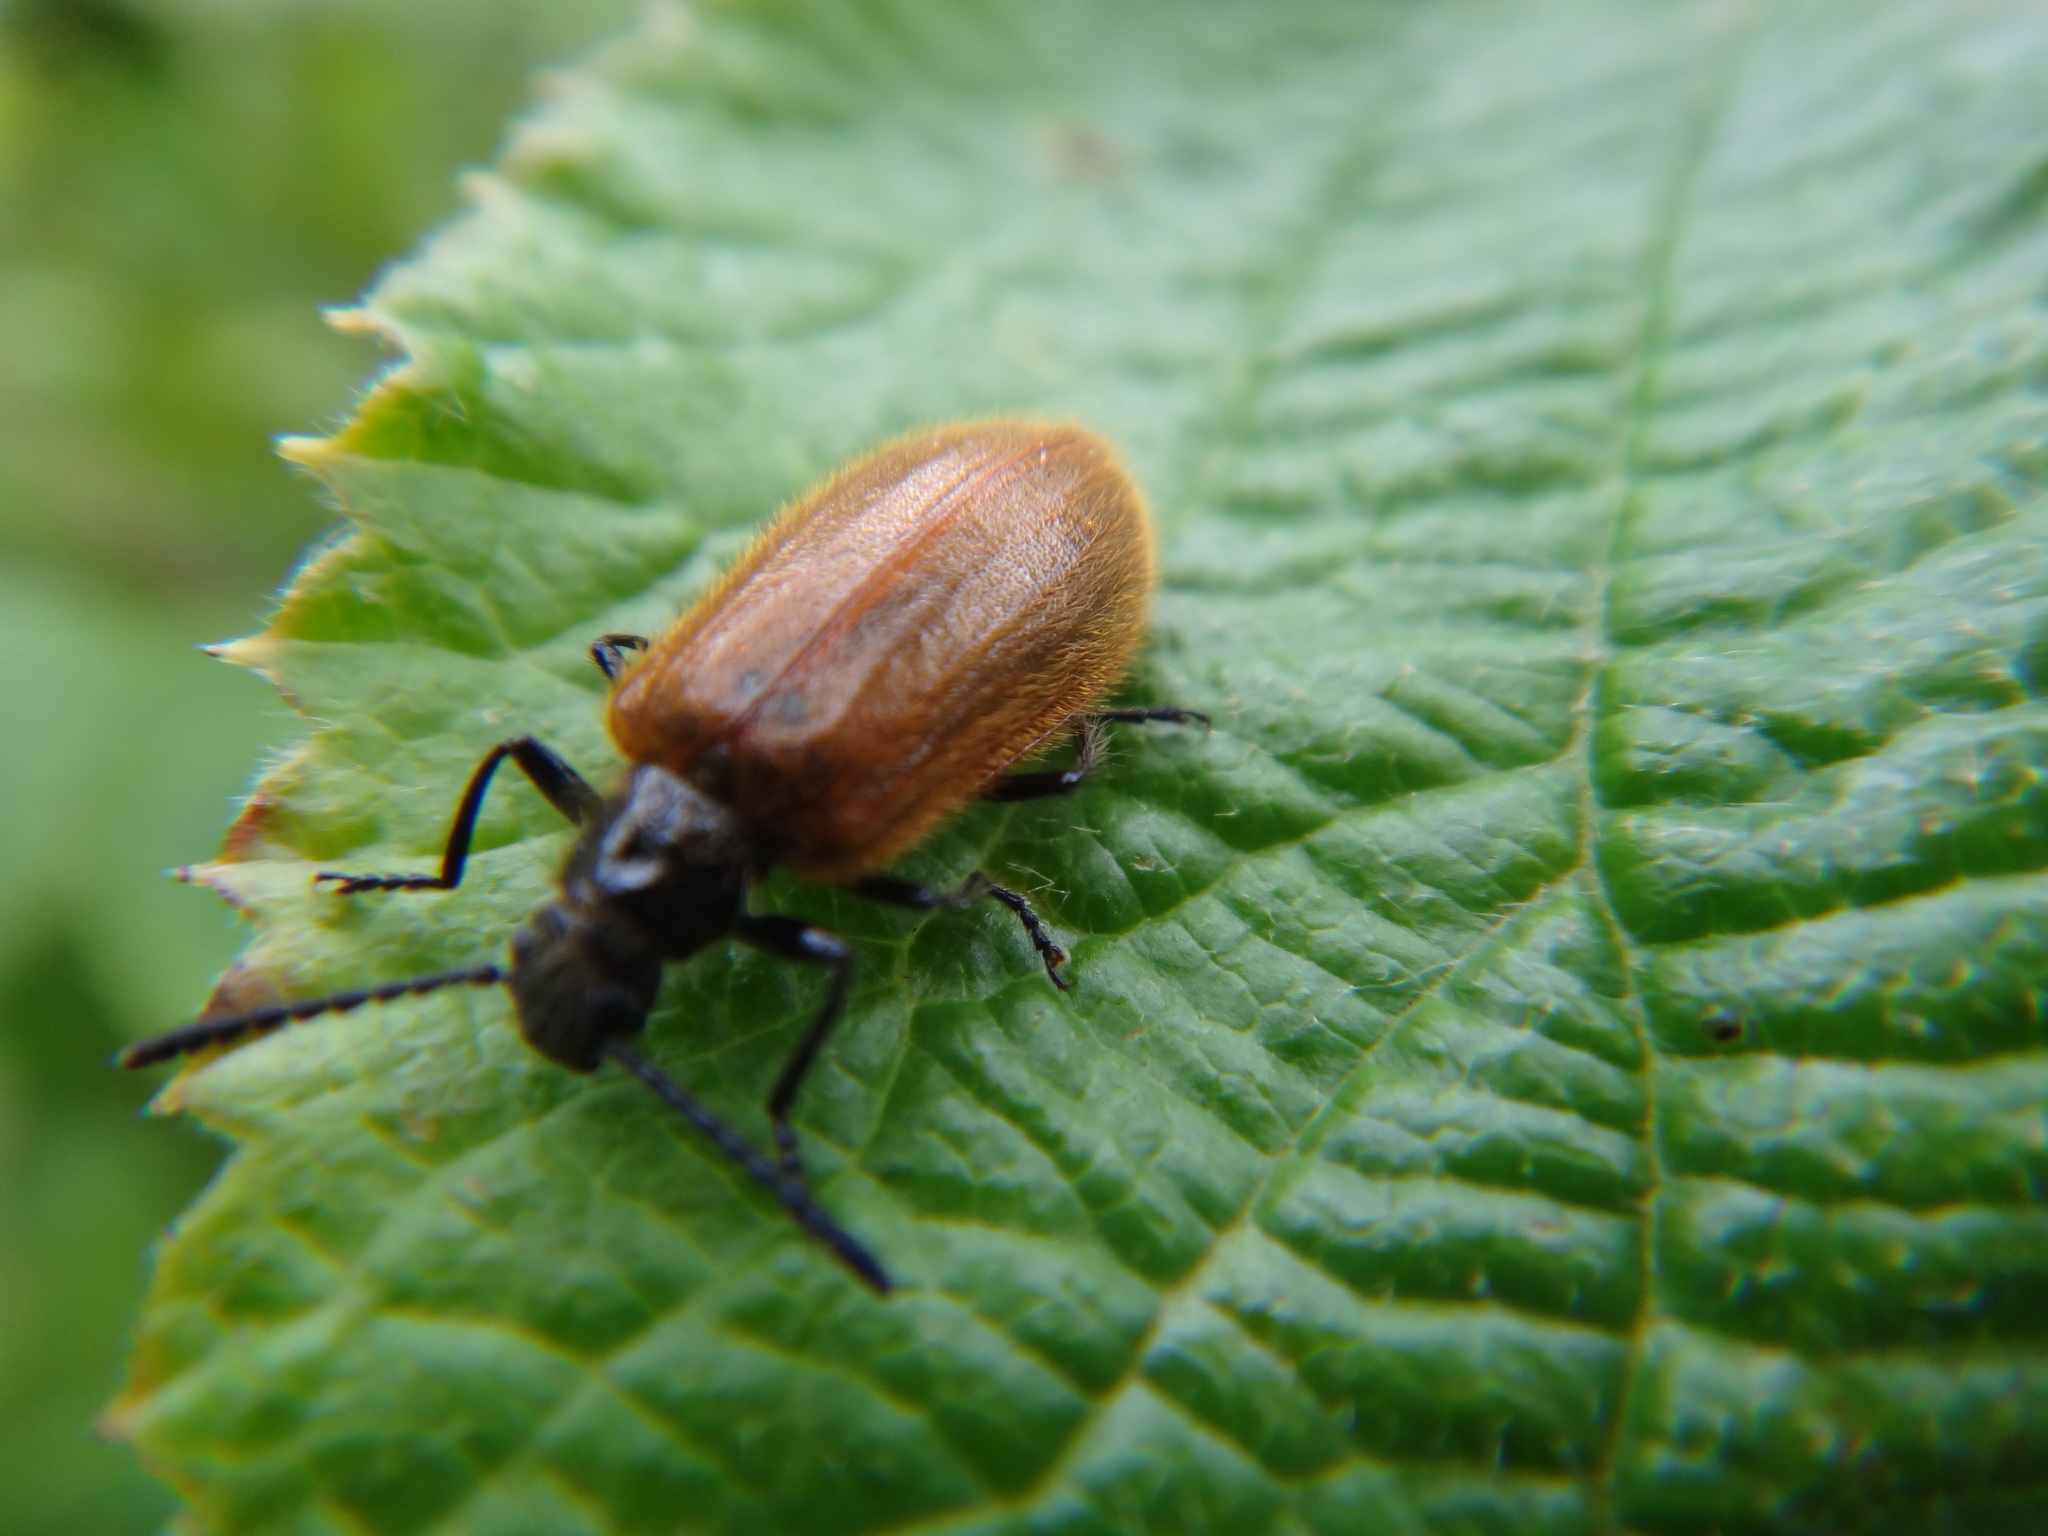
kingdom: Animalia
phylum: Arthropoda
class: Insecta
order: Coleoptera
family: Tenebrionidae
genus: Lagria
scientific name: Lagria hirta
